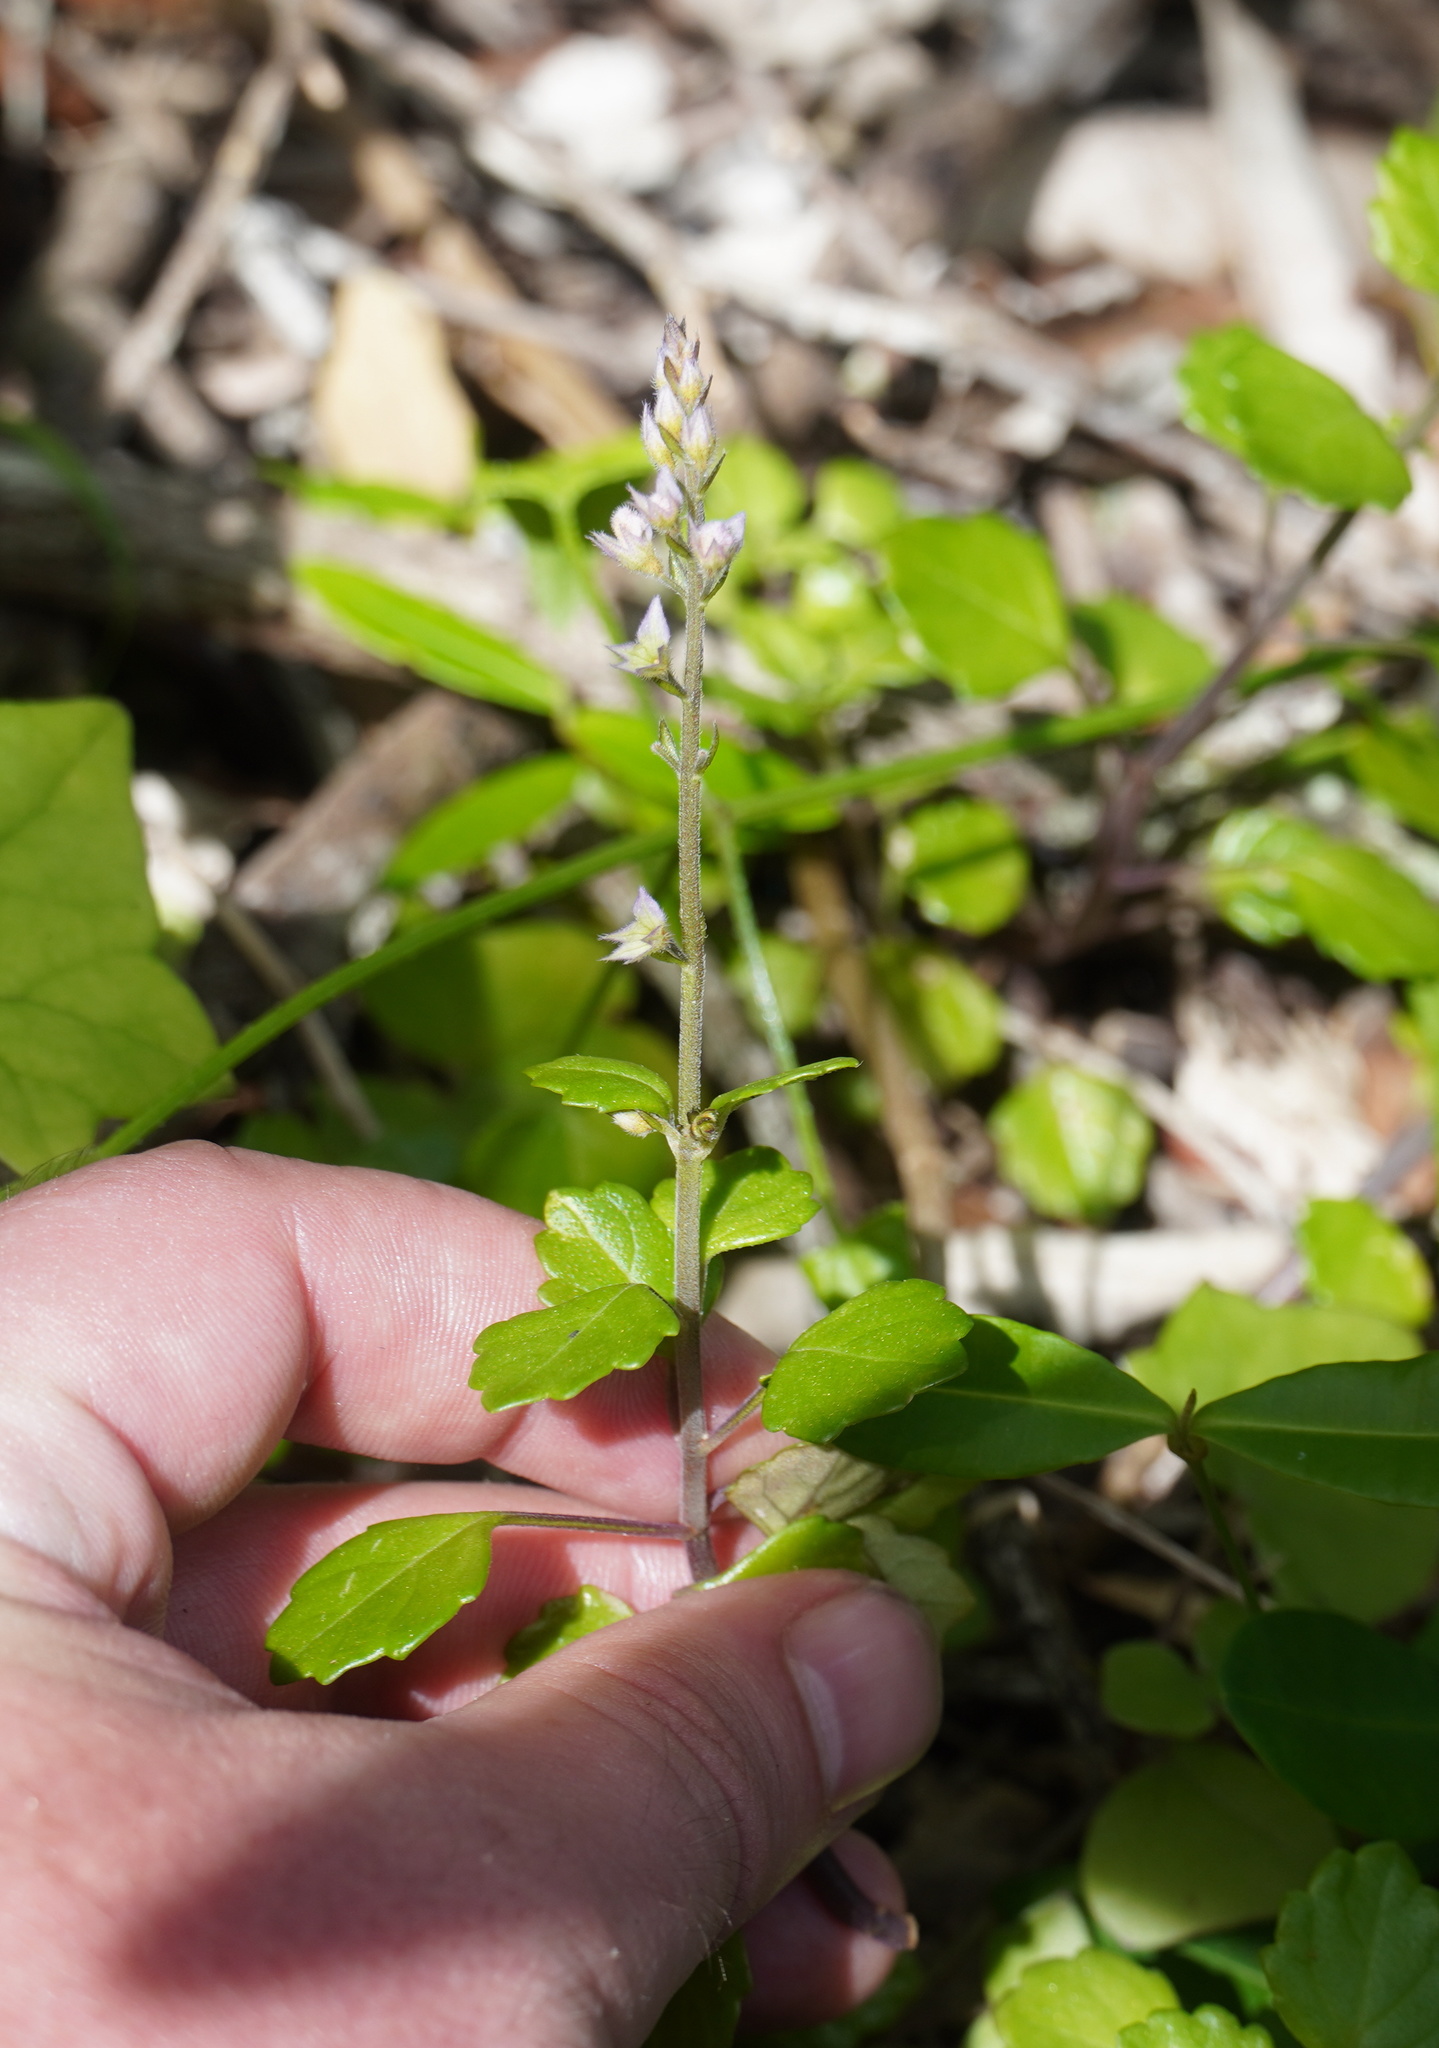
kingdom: Plantae
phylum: Tracheophyta
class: Magnoliopsida
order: Lamiales
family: Lamiaceae
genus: Plectranthus
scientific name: Plectranthus lucidus
